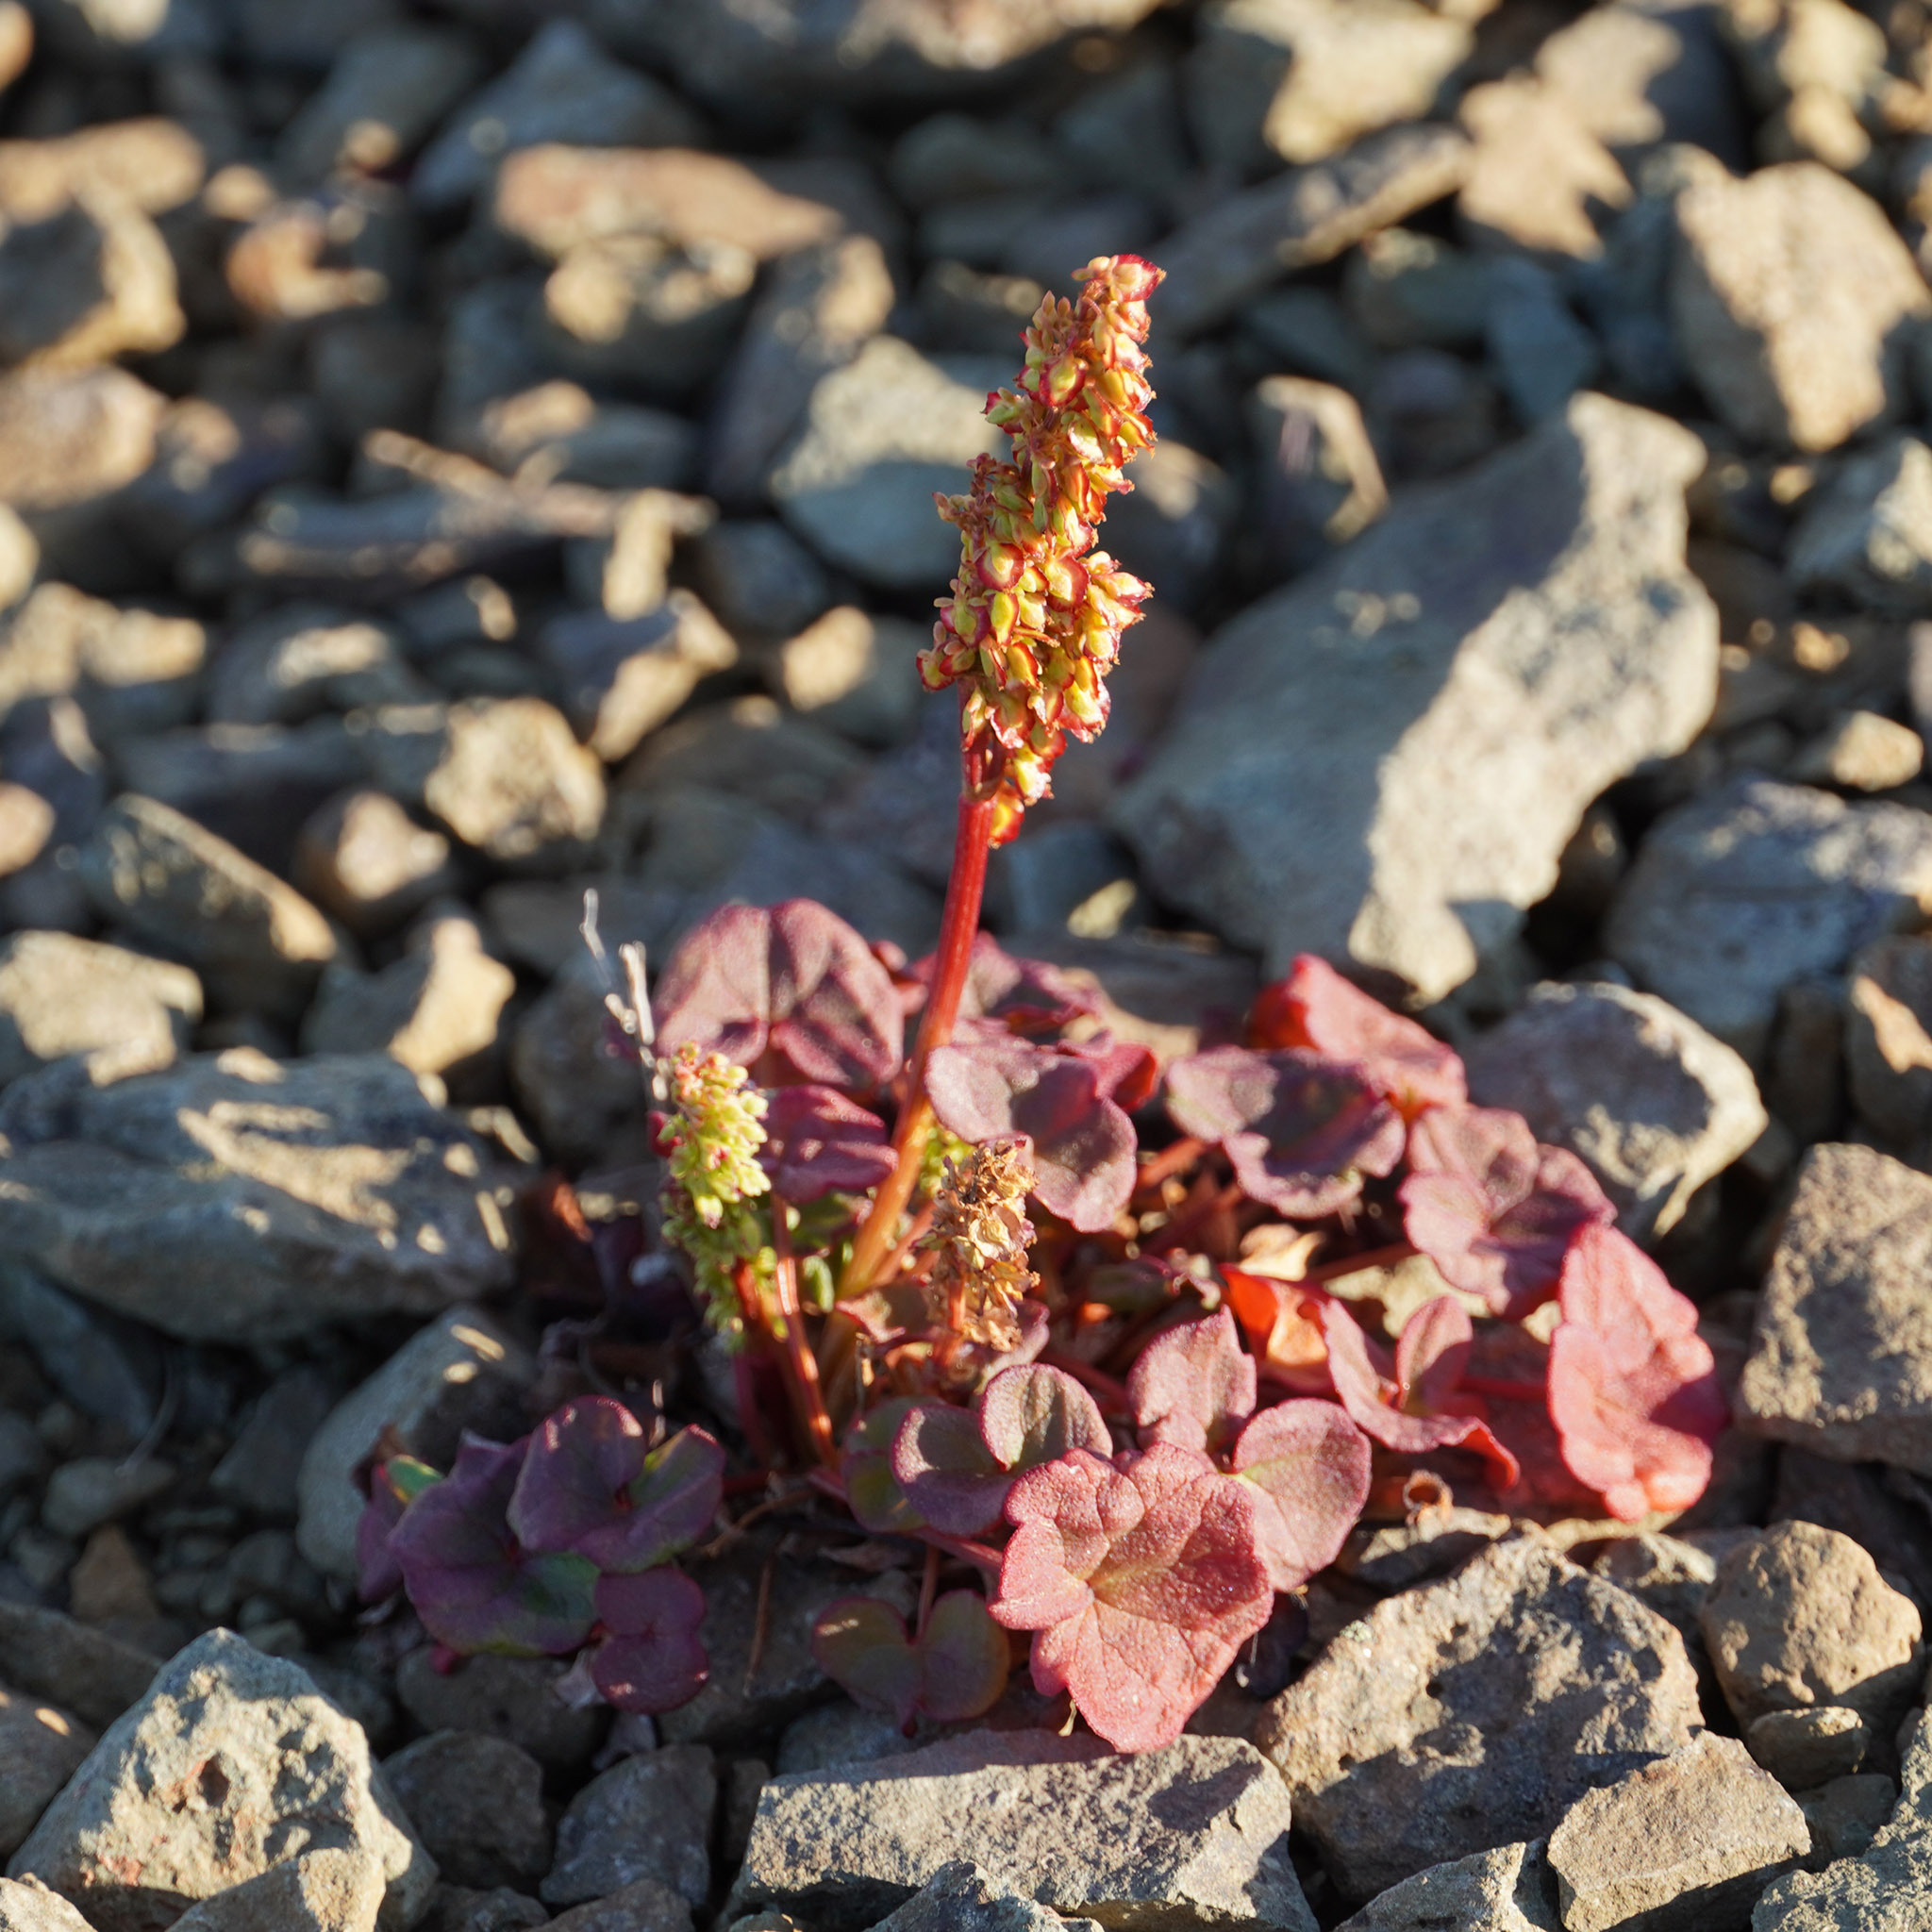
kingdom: Plantae
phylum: Tracheophyta
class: Magnoliopsida
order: Caryophyllales
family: Polygonaceae
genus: Oxyria
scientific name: Oxyria digyna
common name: Alpine mountain-sorrel
